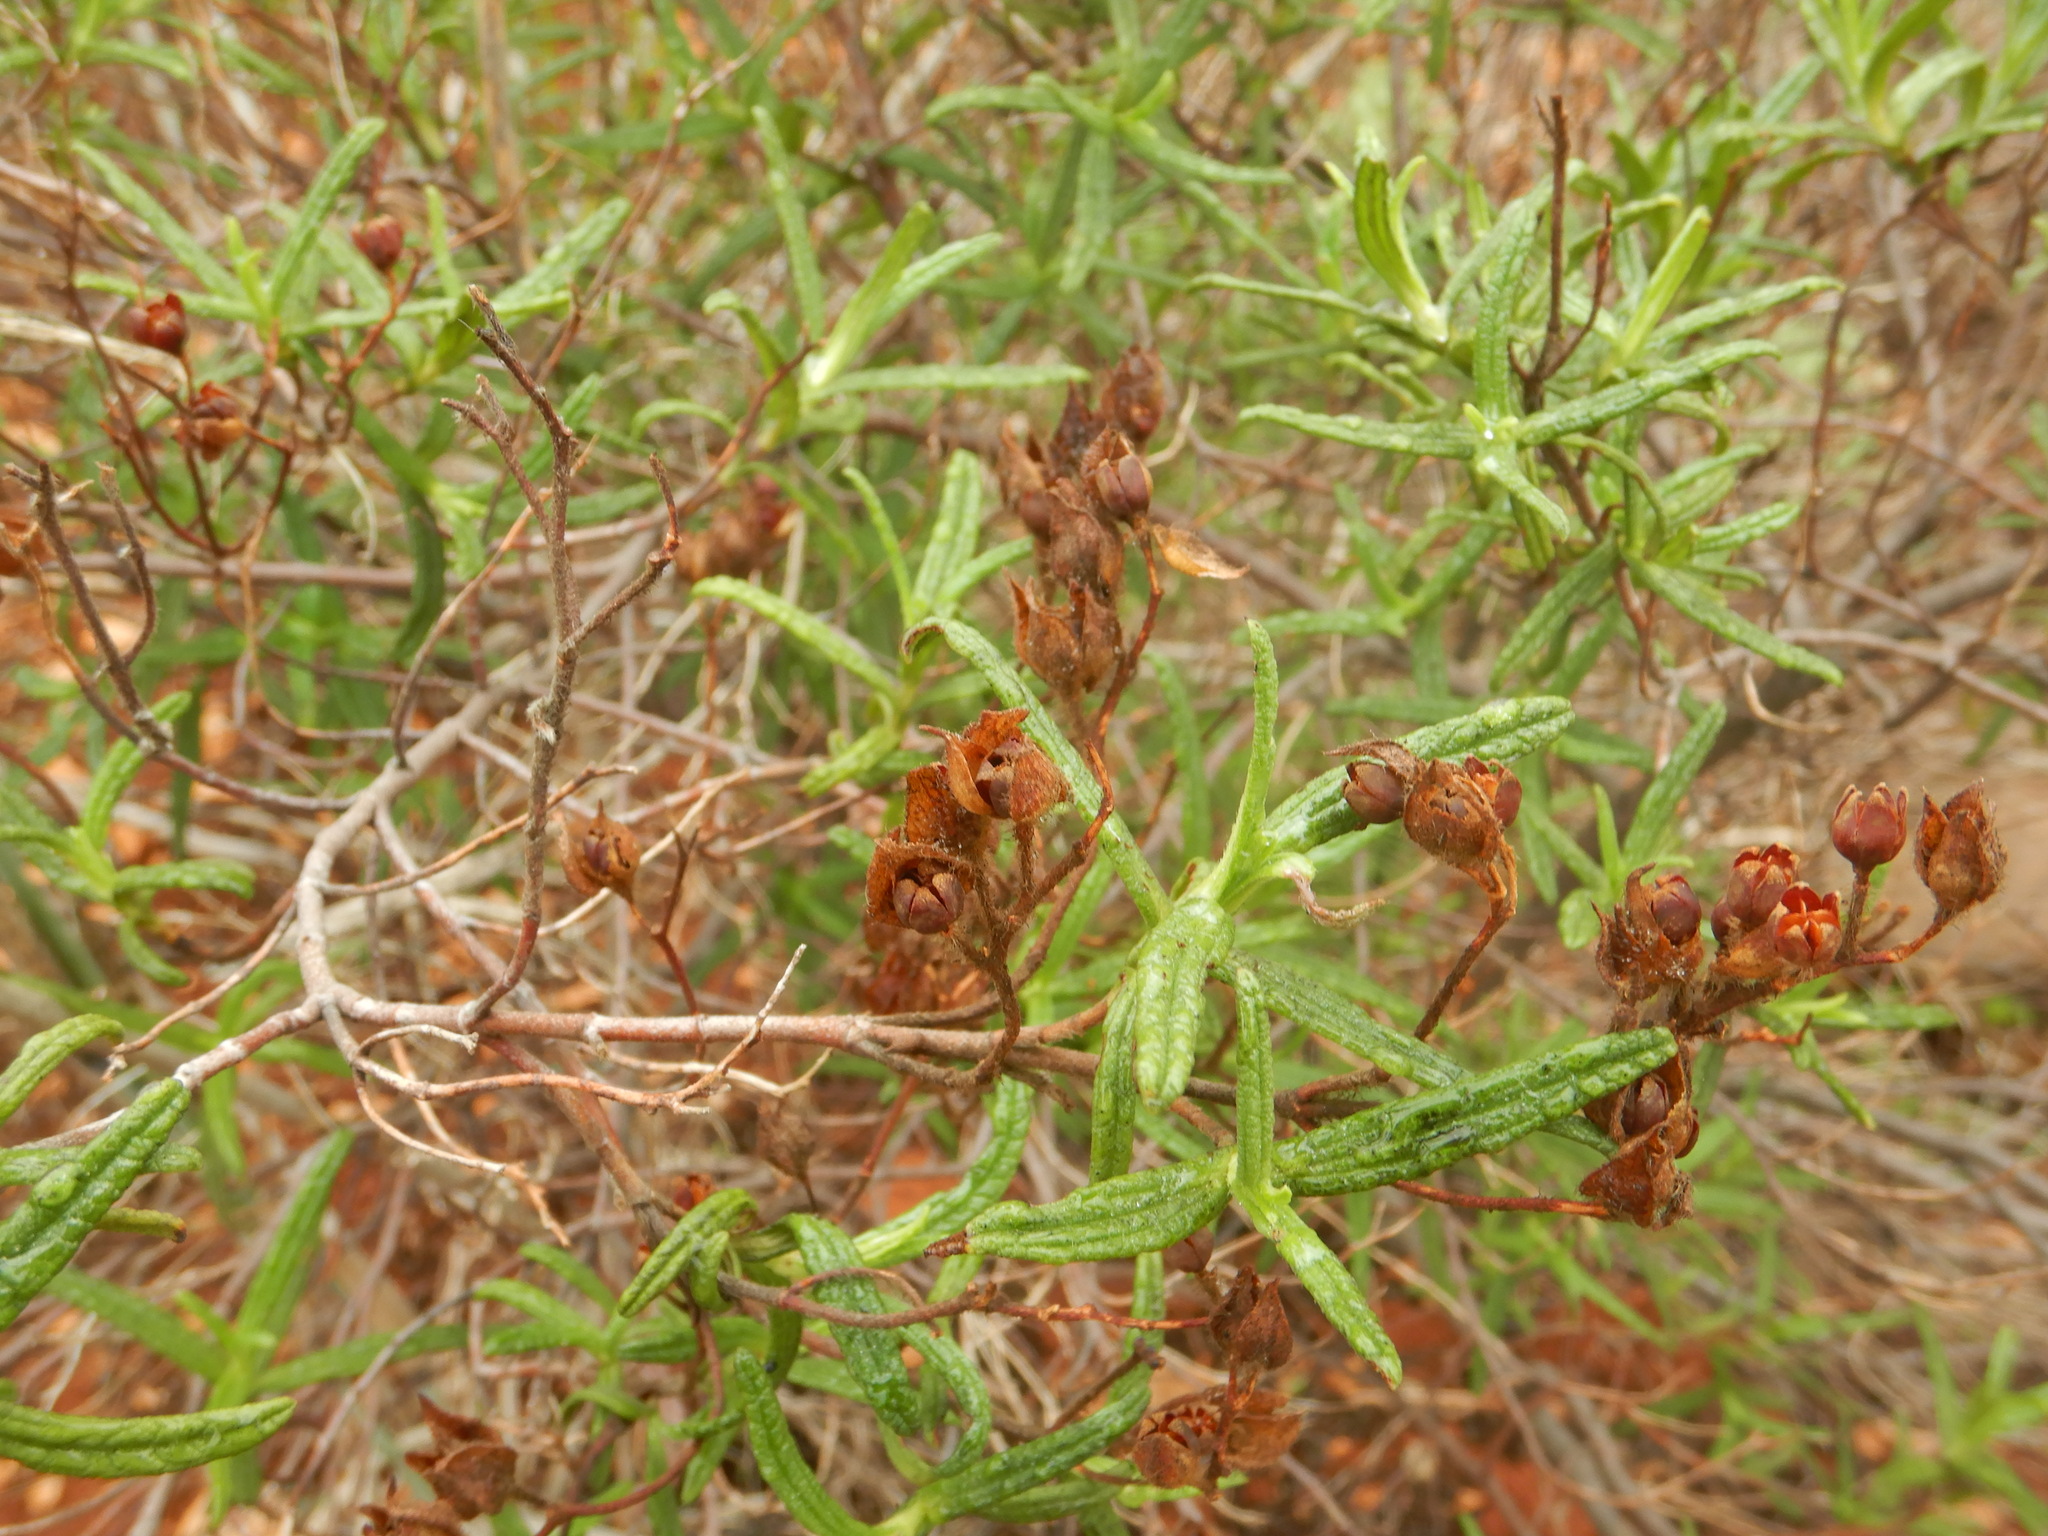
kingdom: Plantae
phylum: Tracheophyta
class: Magnoliopsida
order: Malvales
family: Cistaceae
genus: Cistus
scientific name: Cistus monspeliensis
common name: Montpelier cistus
